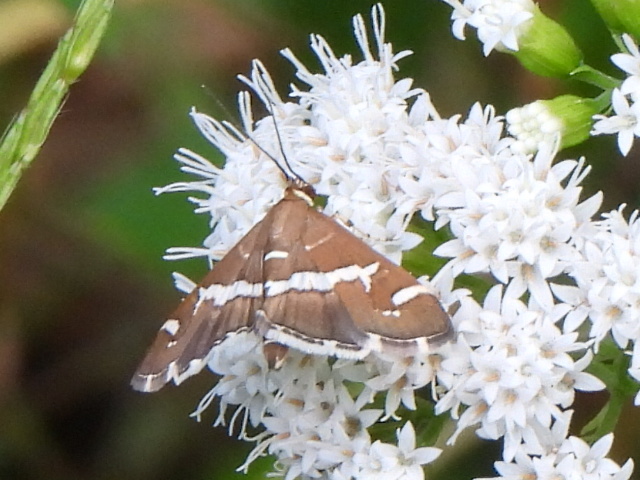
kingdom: Animalia
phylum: Arthropoda
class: Insecta
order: Lepidoptera
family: Crambidae
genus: Spoladea
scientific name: Spoladea recurvalis
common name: Beet webworm moth
